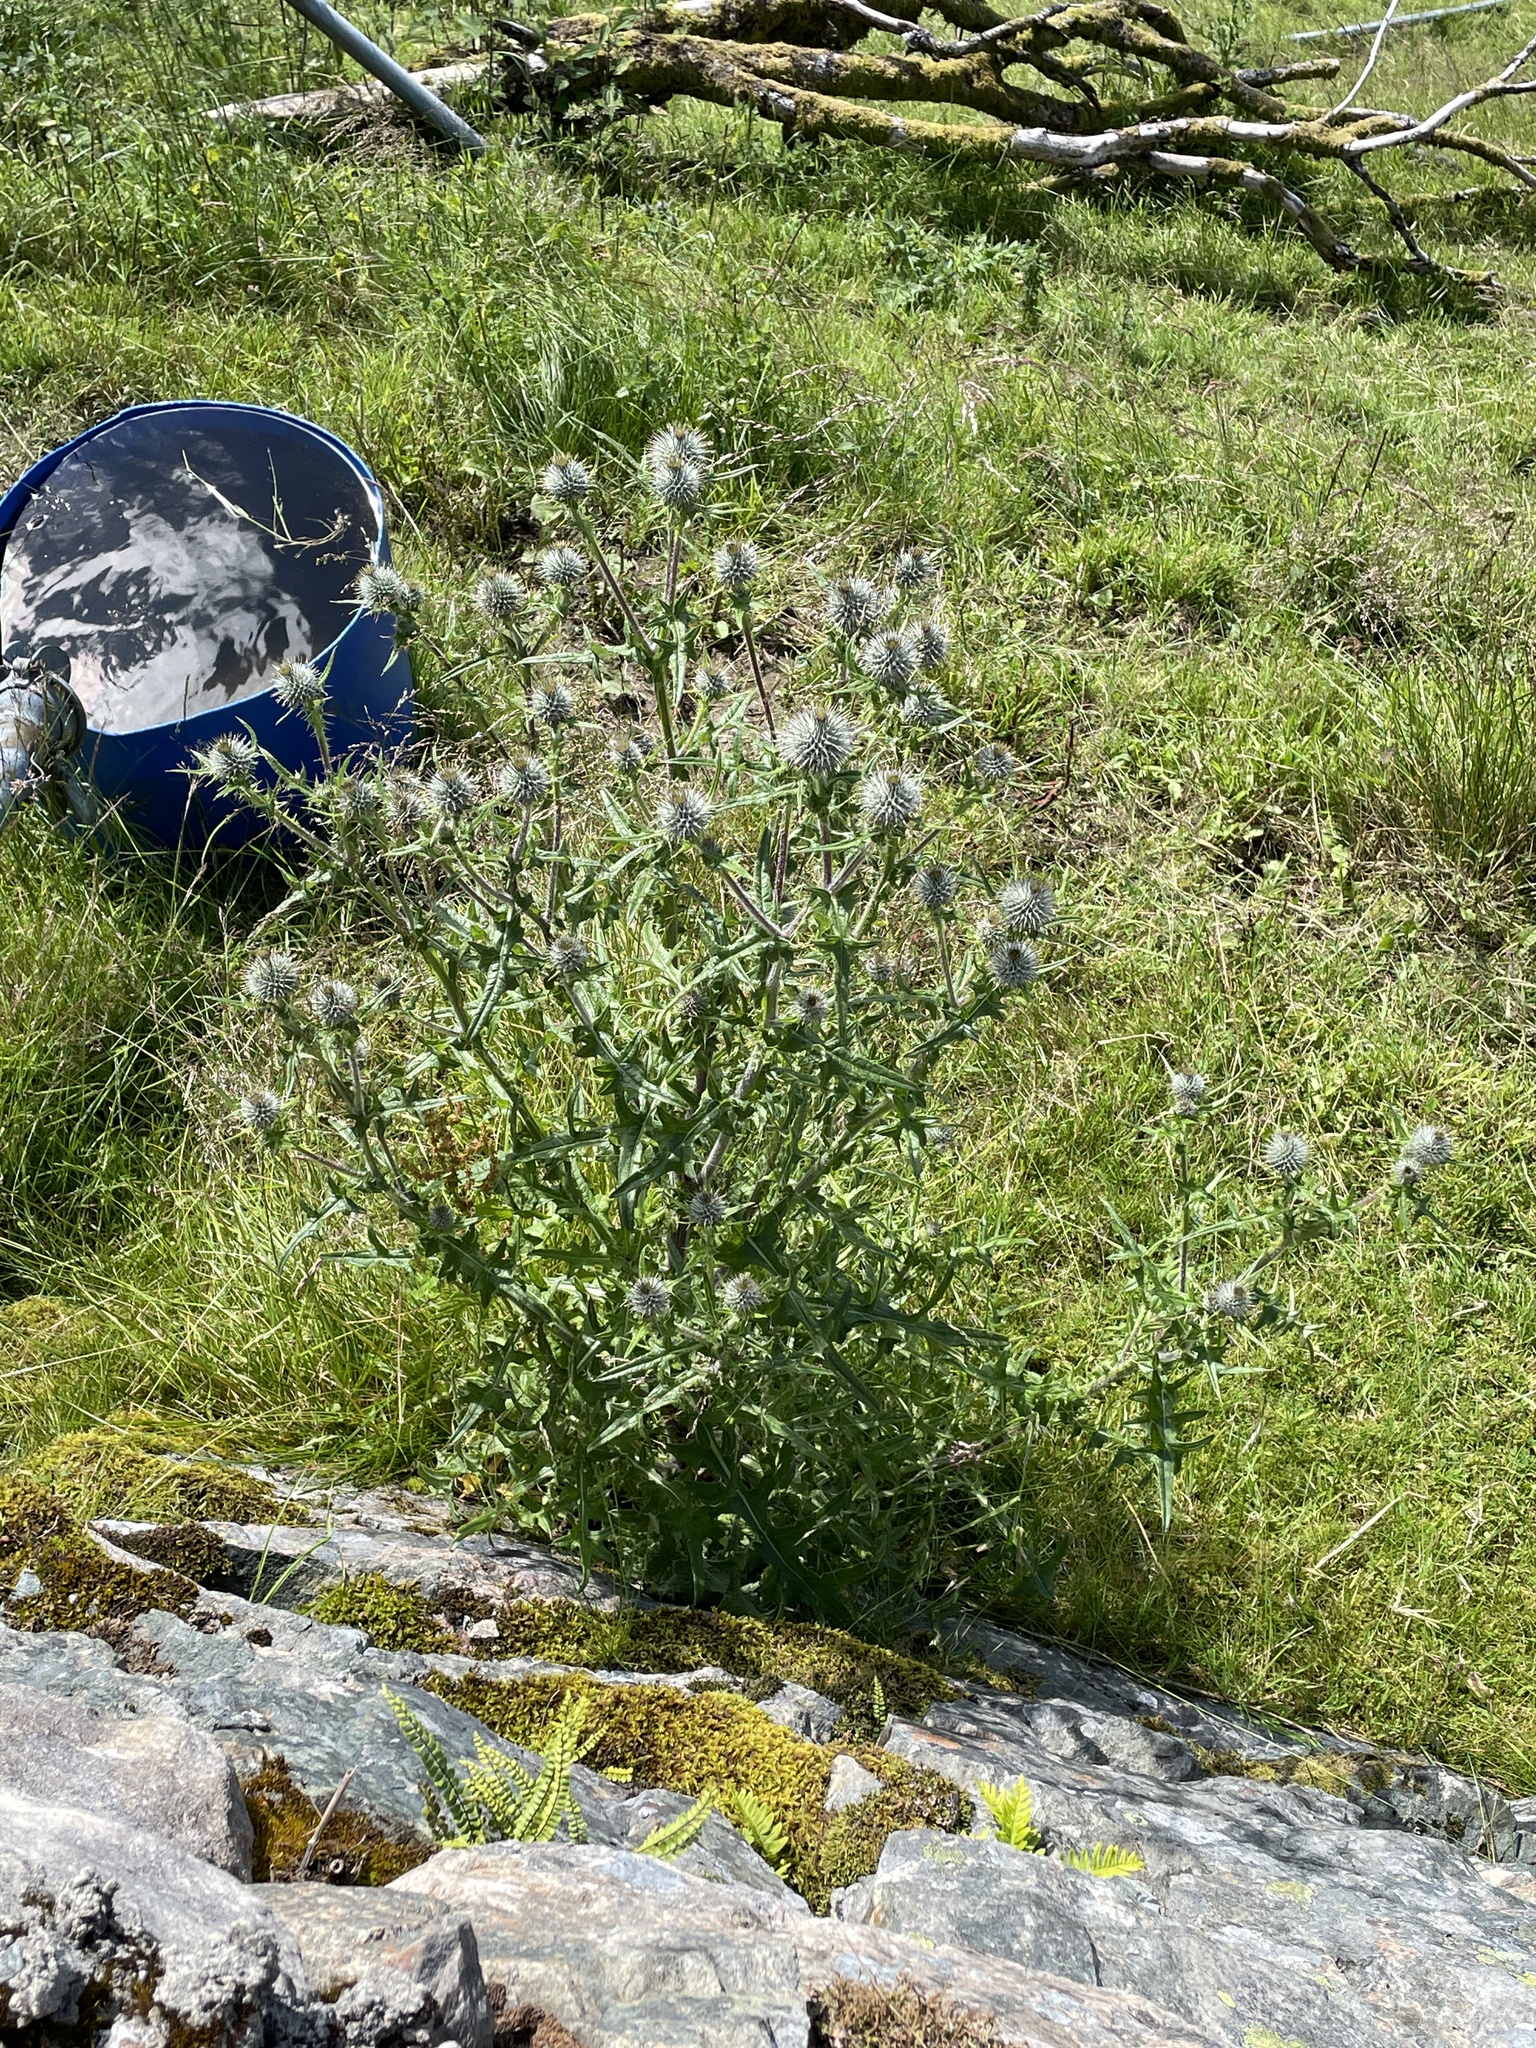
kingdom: Plantae
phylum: Tracheophyta
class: Magnoliopsida
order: Asterales
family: Asteraceae
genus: Cirsium
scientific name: Cirsium vulgare
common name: Bull thistle
